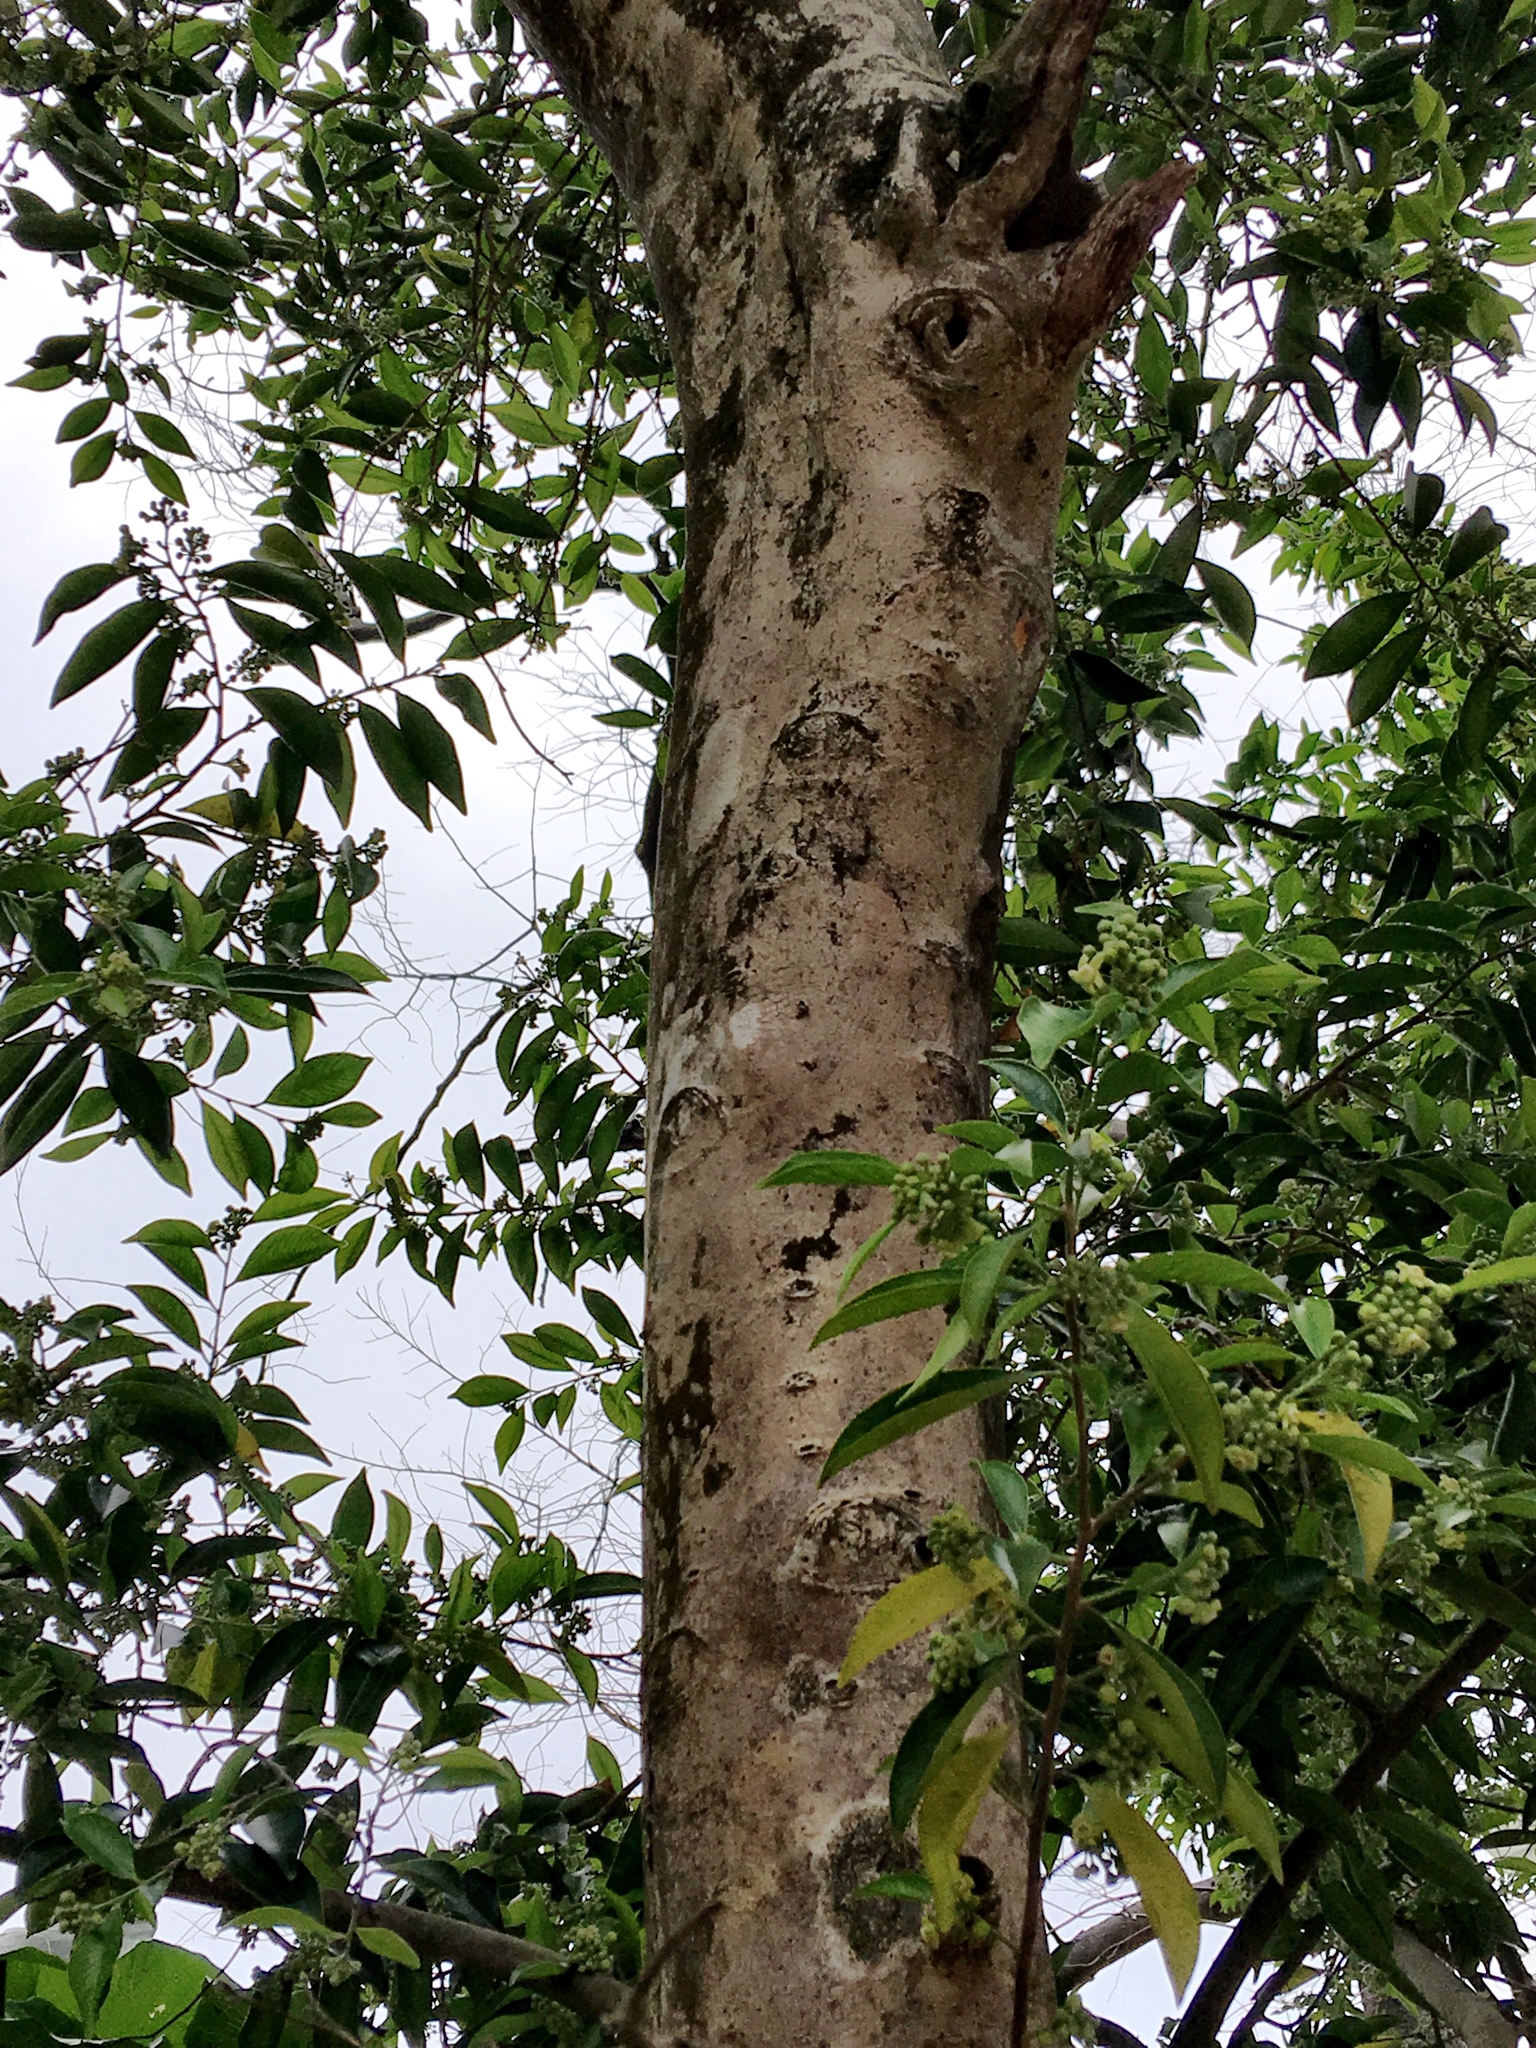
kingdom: Plantae
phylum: Tracheophyta
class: Magnoliopsida
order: Malvales
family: Thymelaeaceae
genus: Aquilaria
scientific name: Aquilaria sinensis
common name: Chinese agarwood
